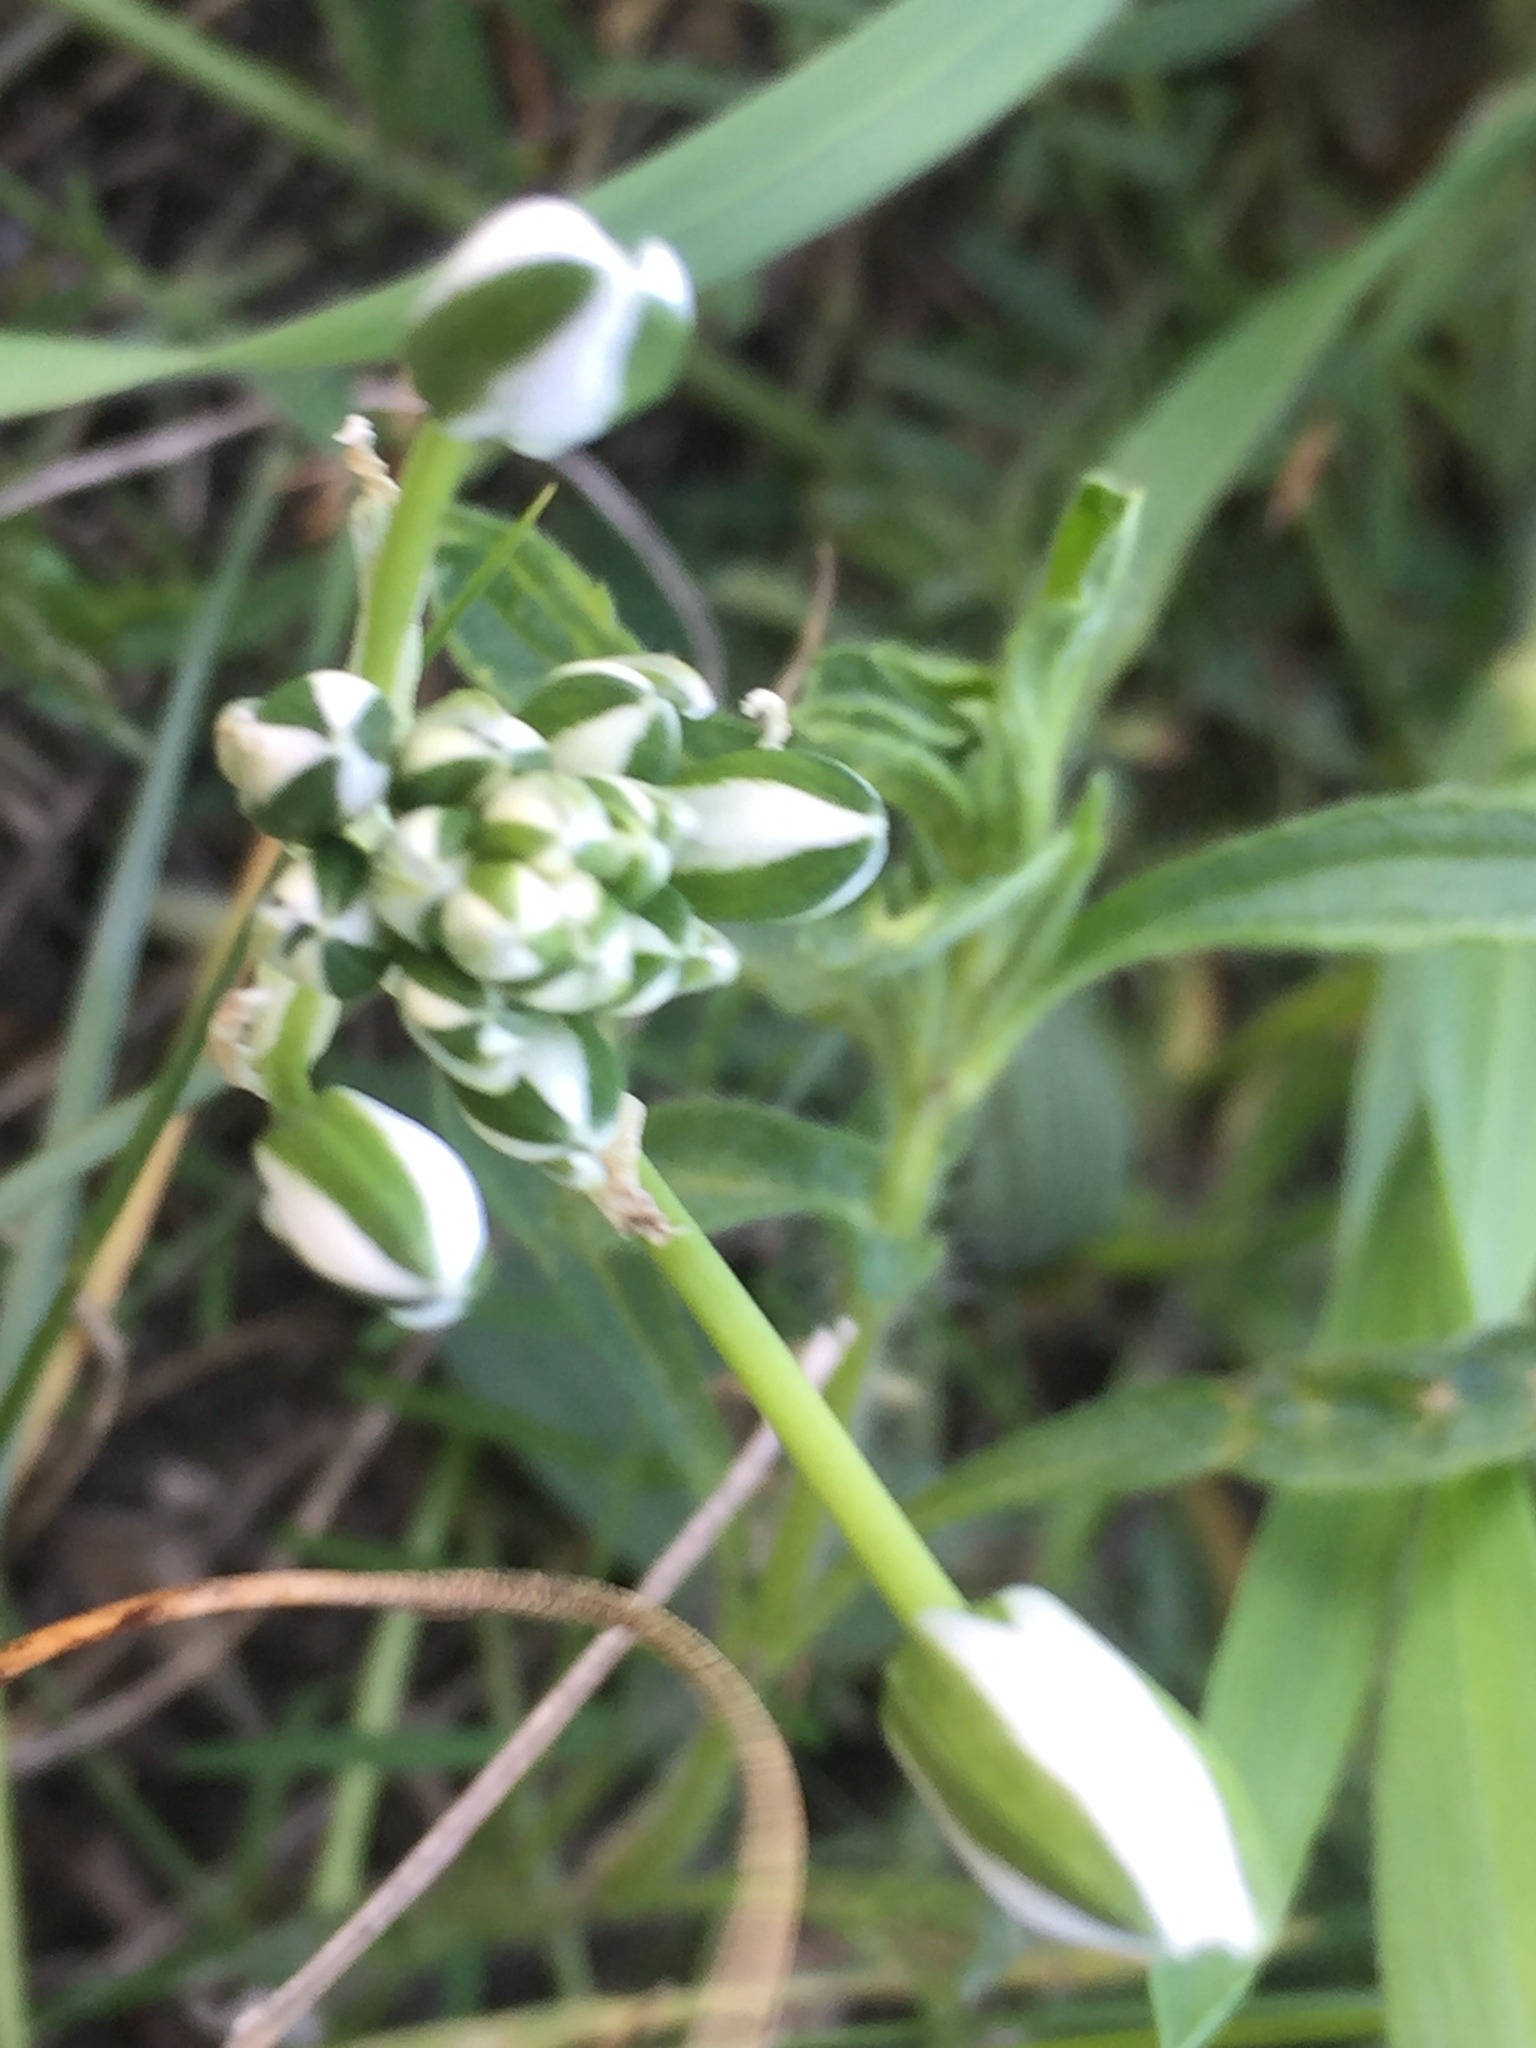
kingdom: Plantae
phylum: Tracheophyta
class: Liliopsida
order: Asparagales
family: Asparagaceae
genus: Ornithogalum
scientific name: Ornithogalum orthophyllum
